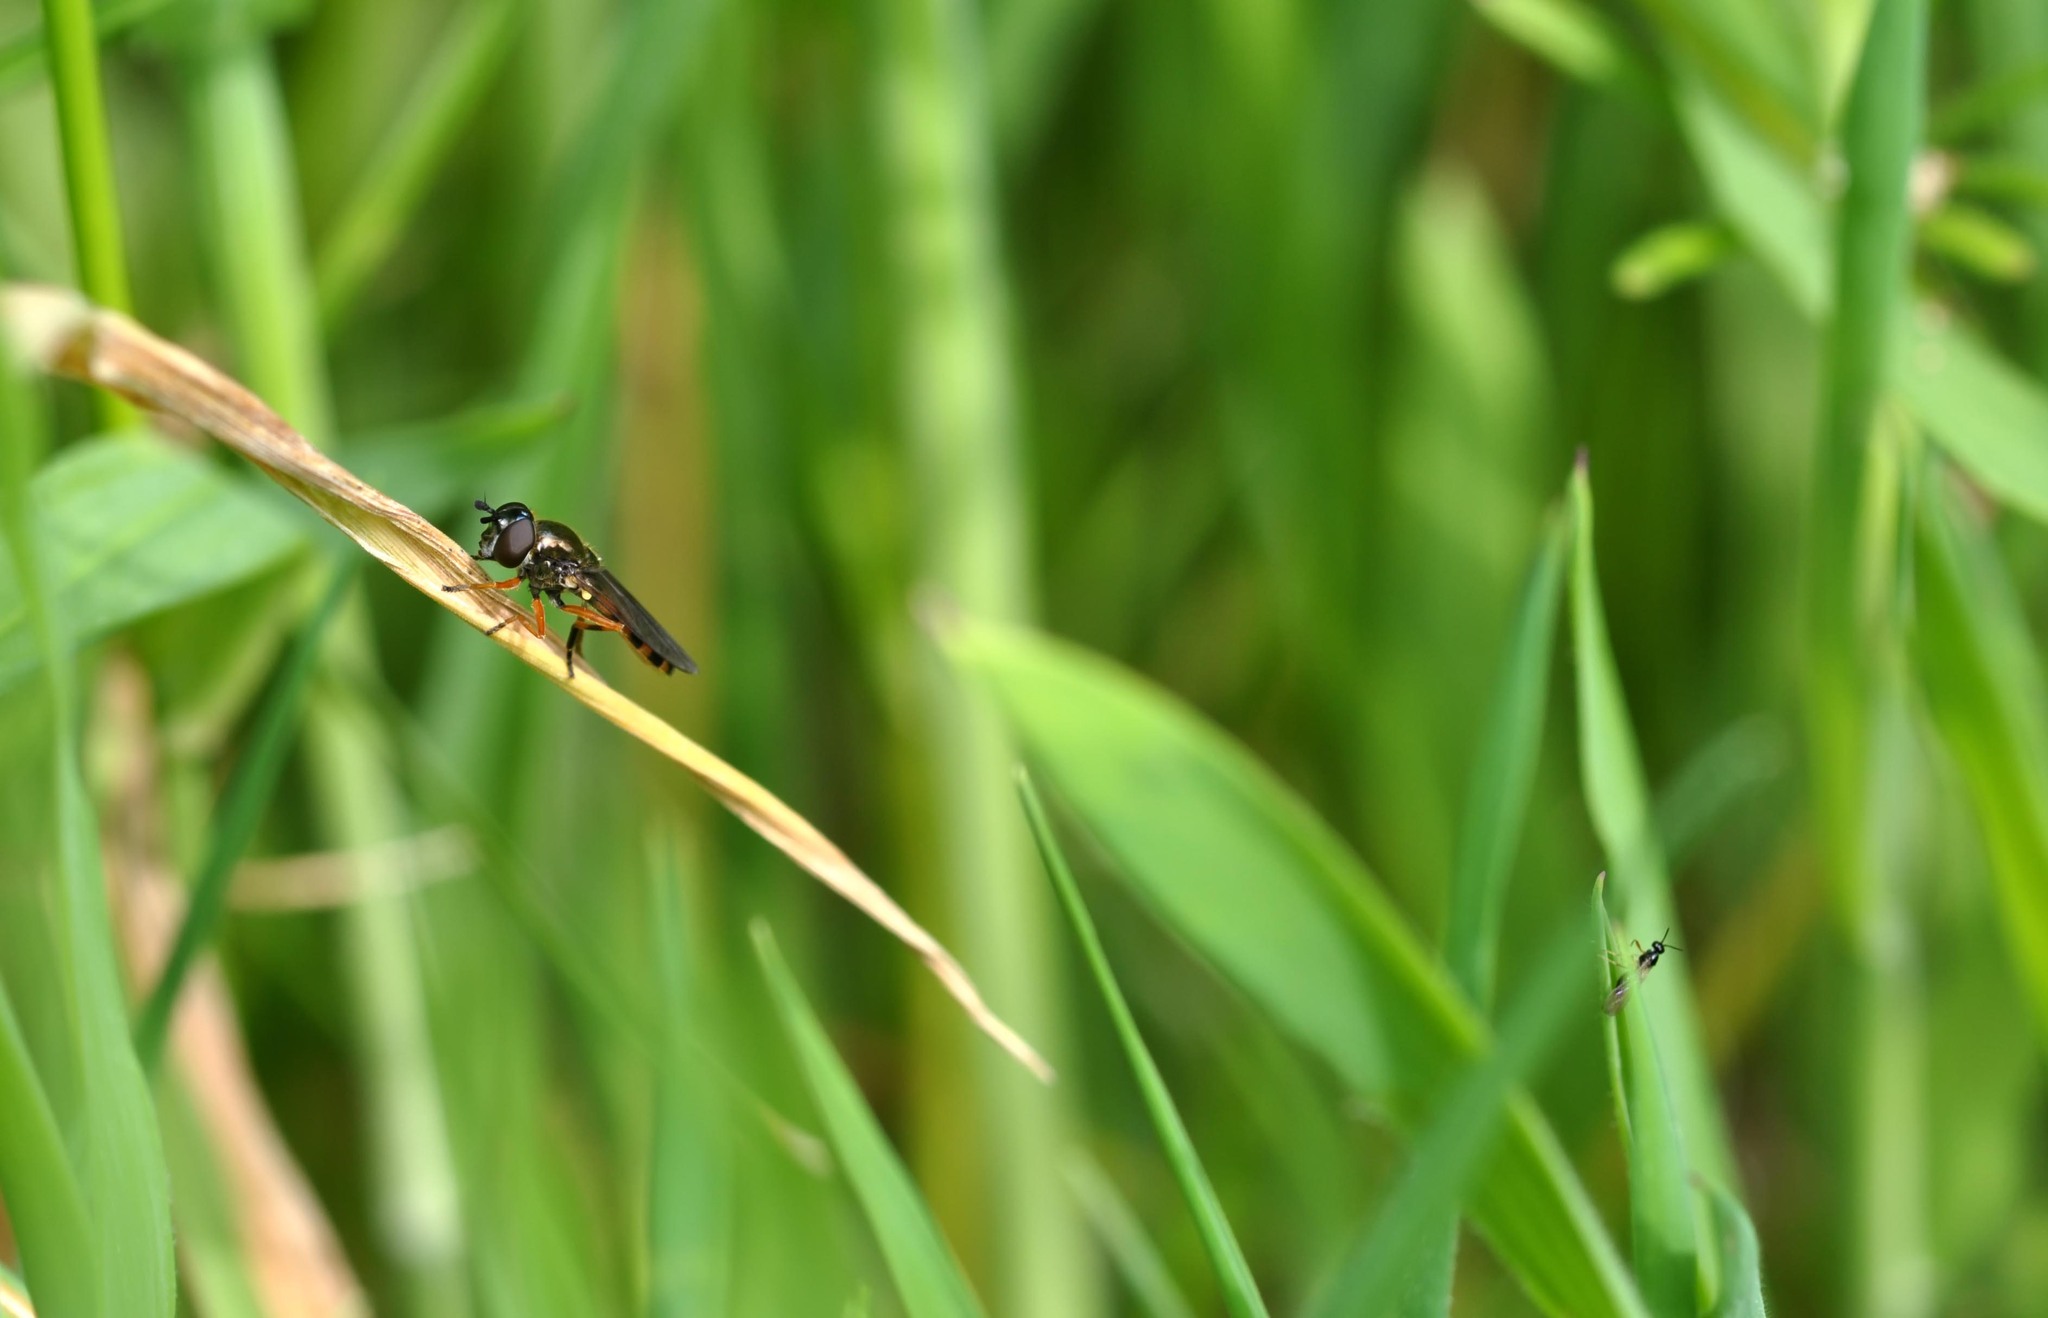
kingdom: Animalia
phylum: Arthropoda
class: Insecta
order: Diptera
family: Syrphidae
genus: Pyrophaena
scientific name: Pyrophaena granditarsa
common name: Hornhand sedgesitter
